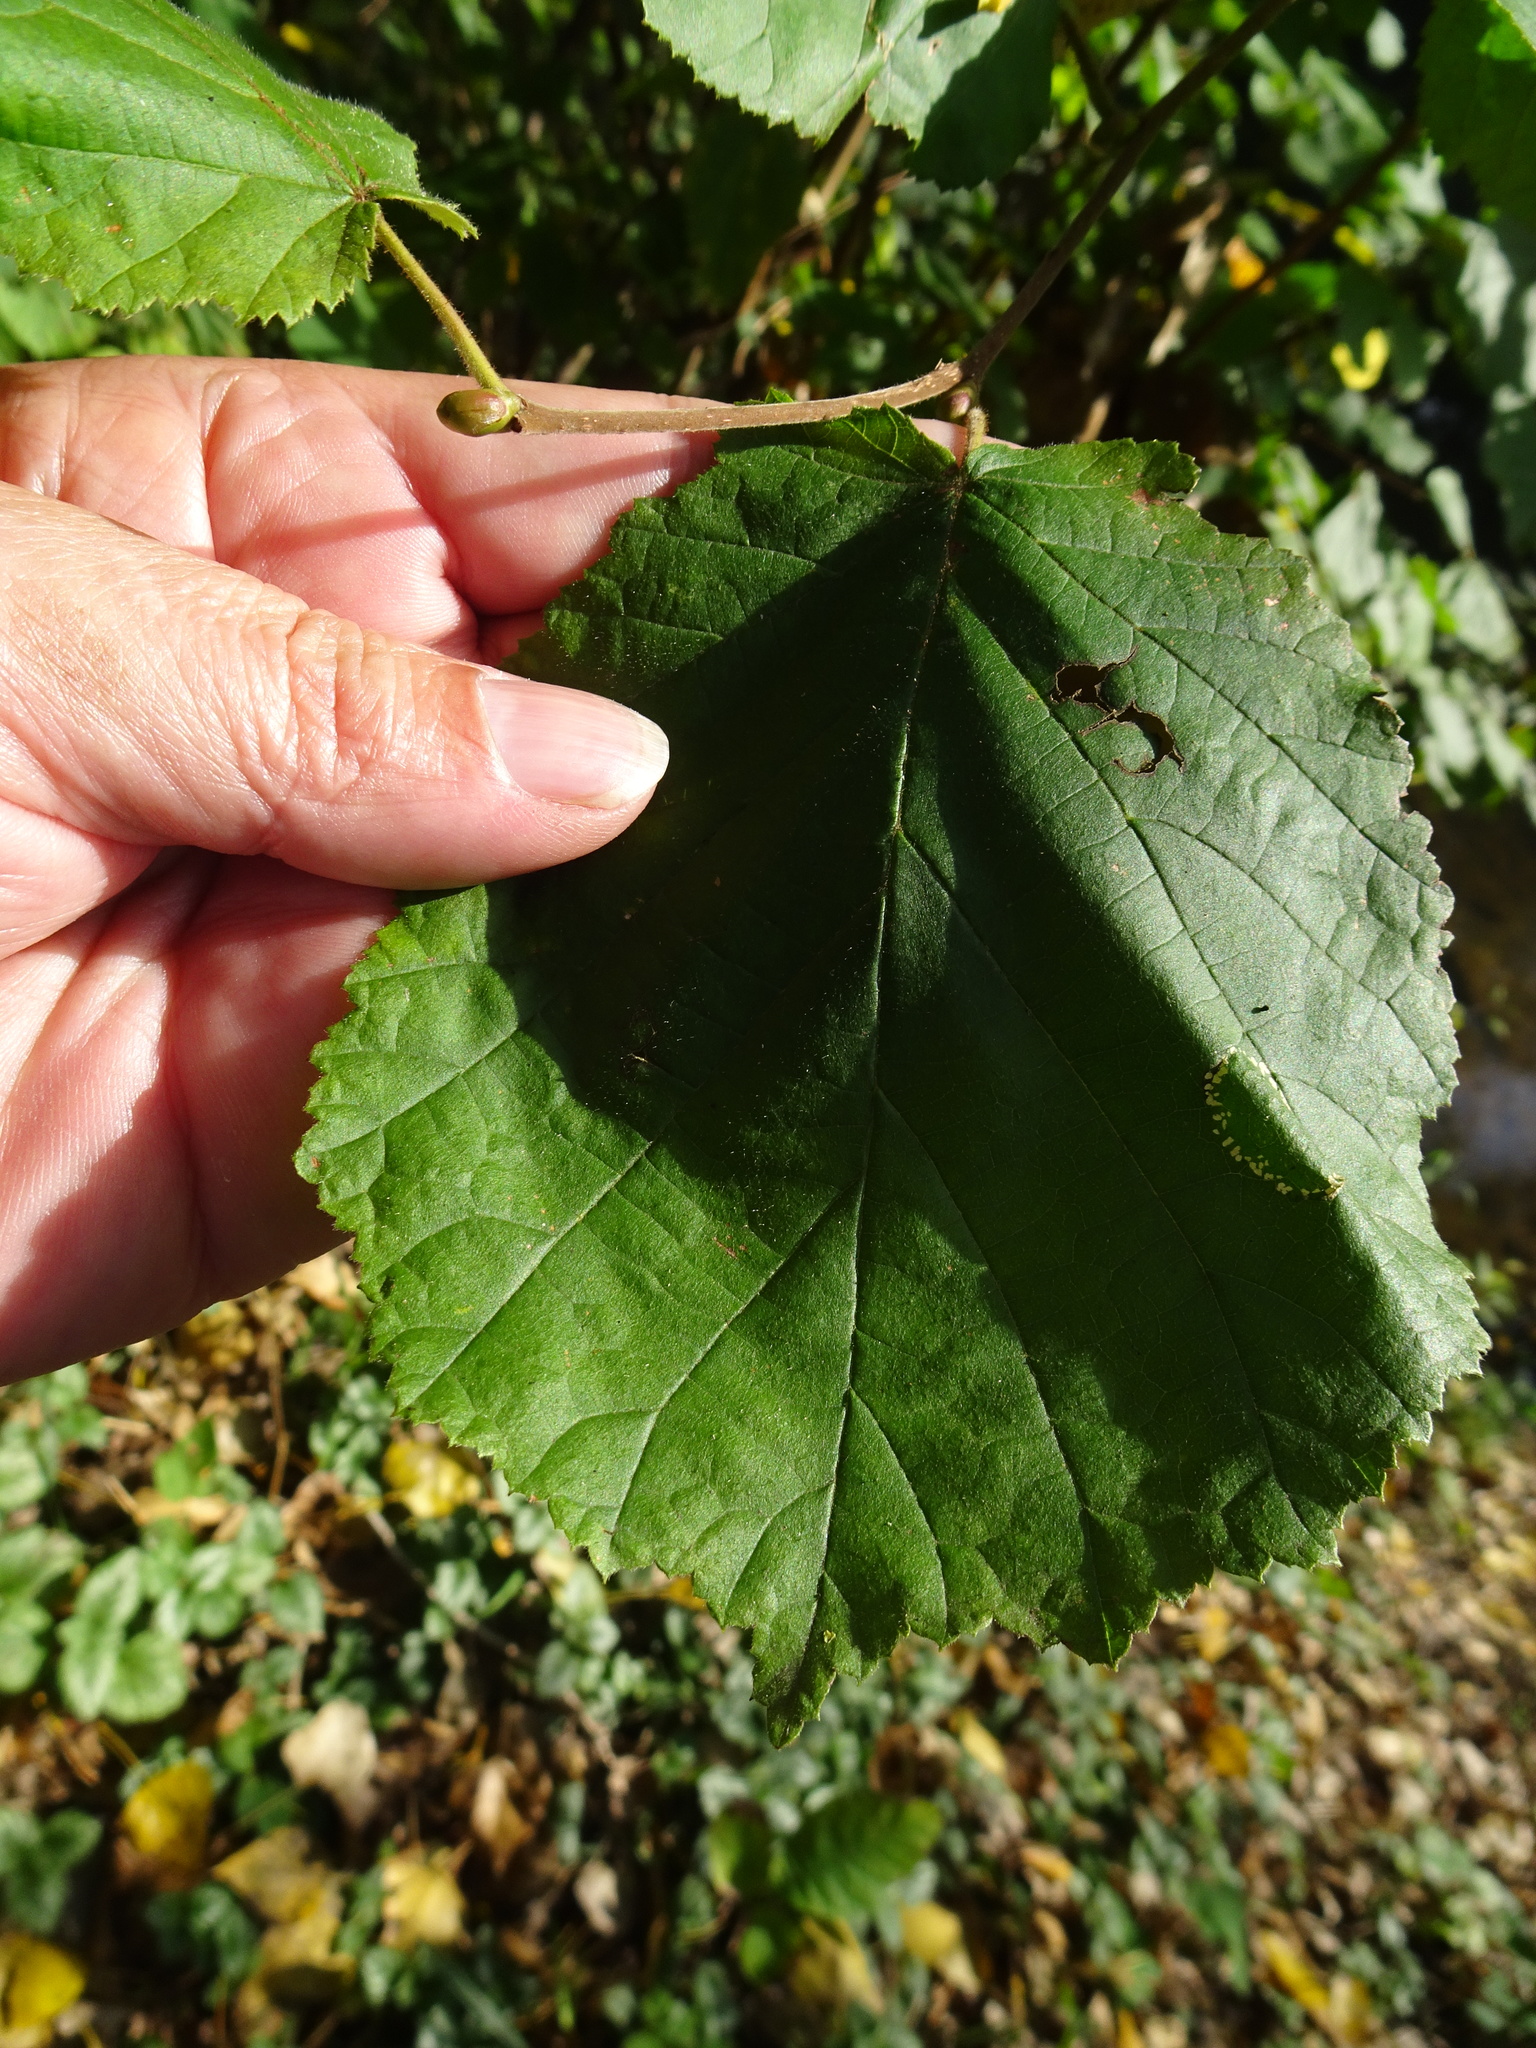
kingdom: Plantae
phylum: Tracheophyta
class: Magnoliopsida
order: Fagales
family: Betulaceae
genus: Corylus
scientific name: Corylus avellana
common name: European hazel
